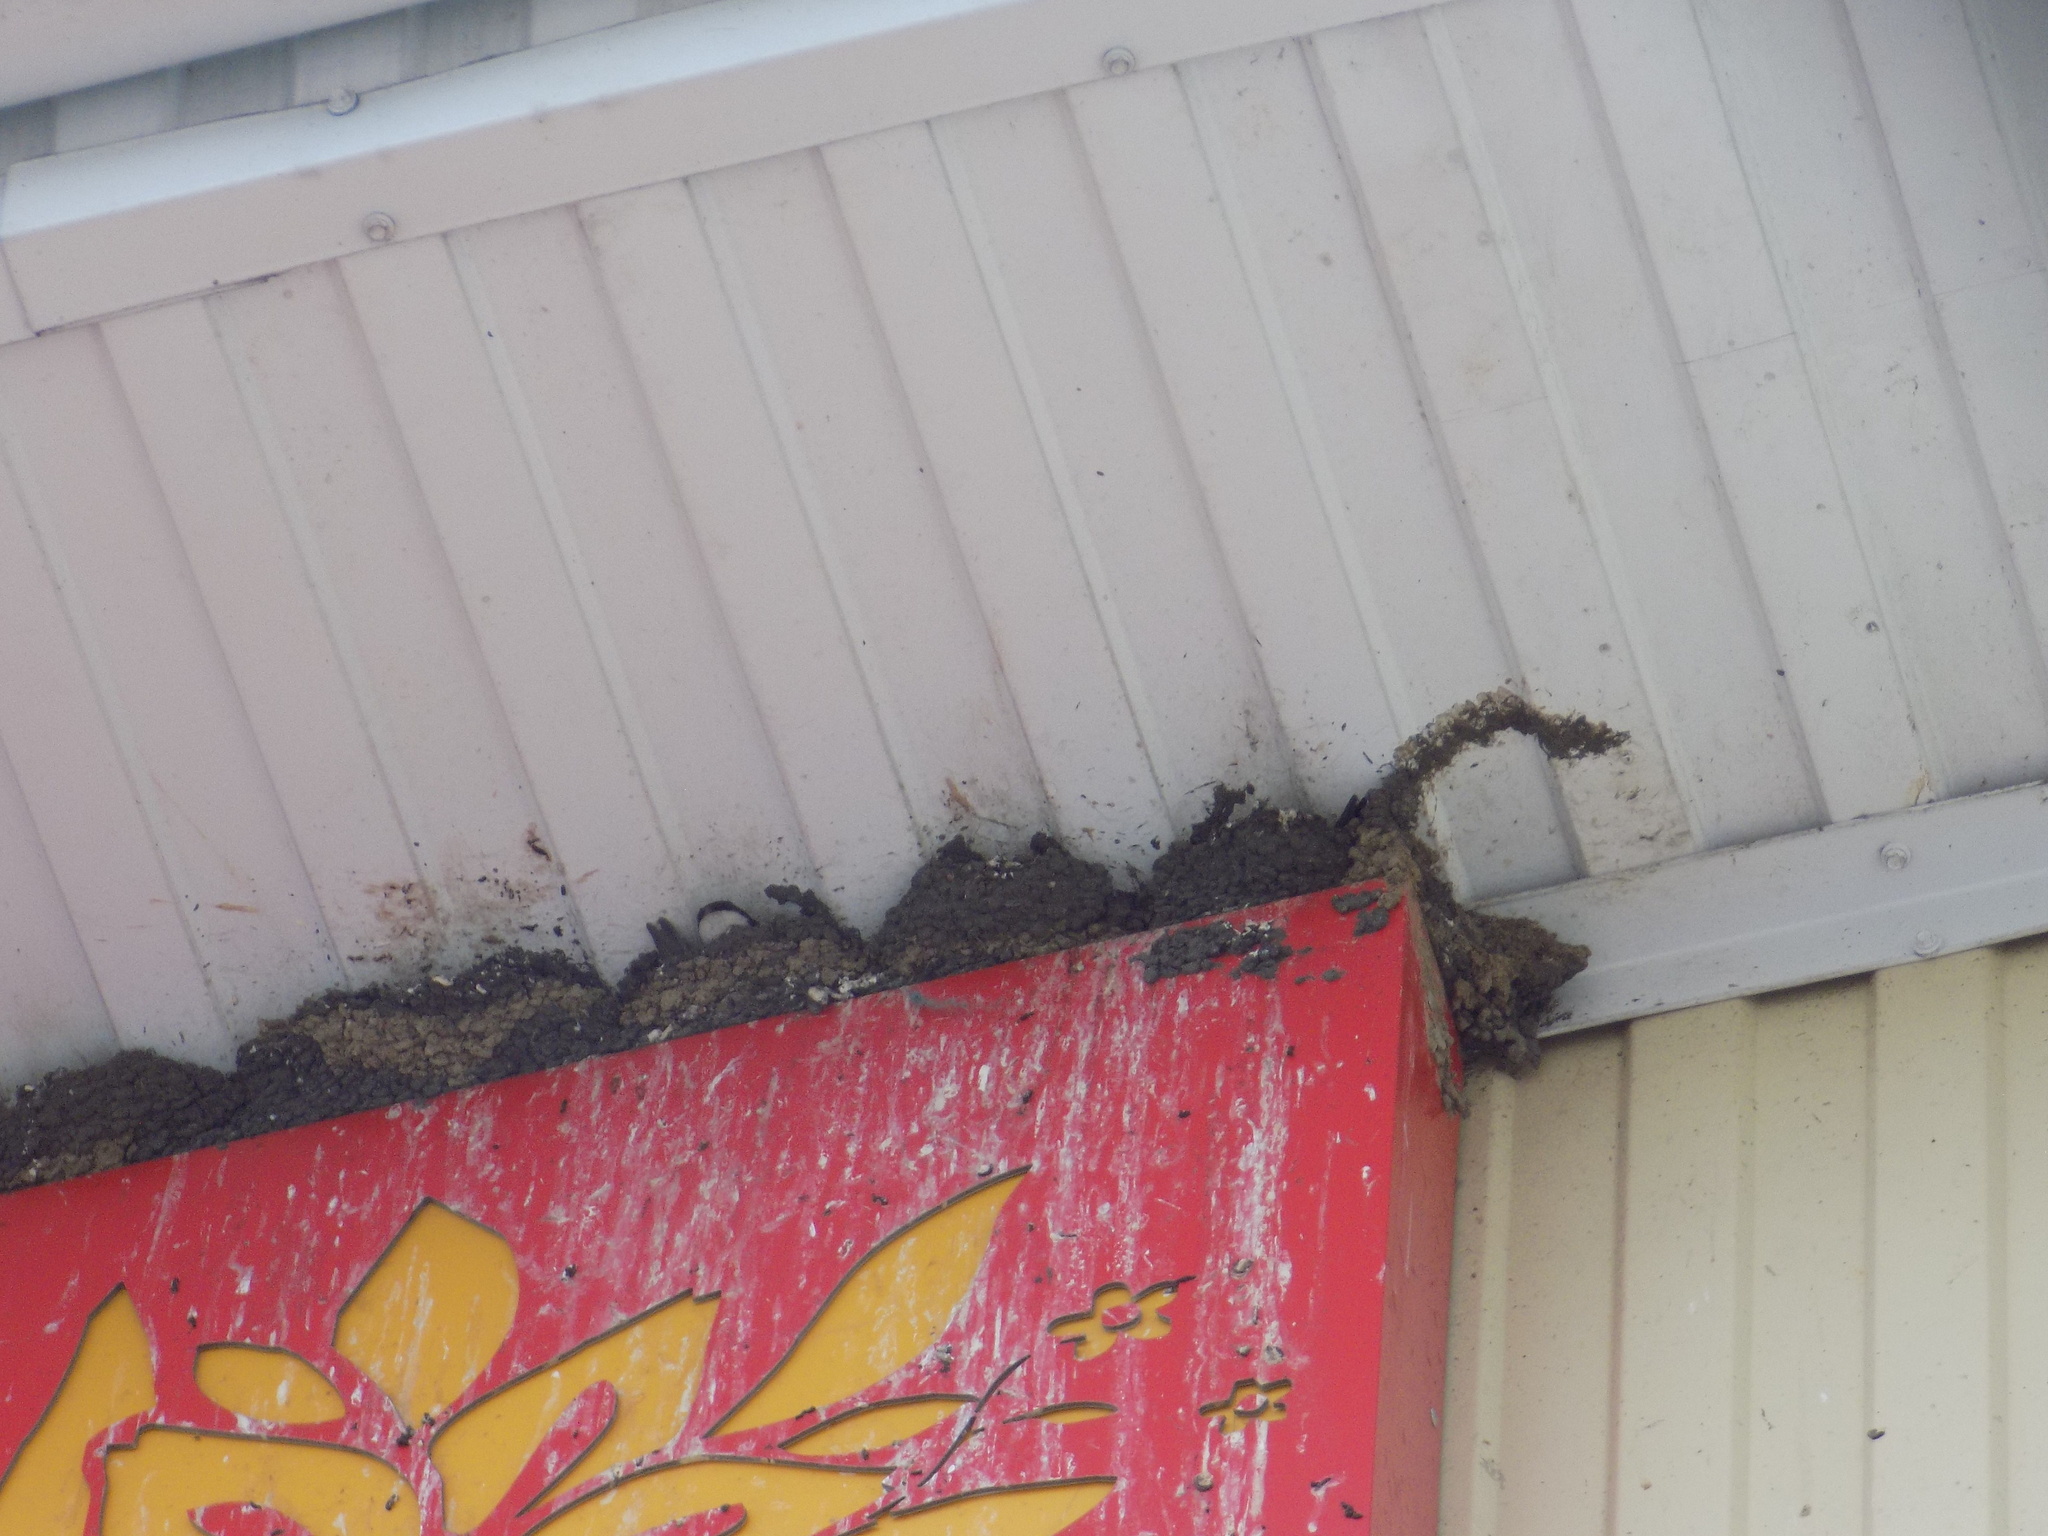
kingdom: Animalia
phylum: Chordata
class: Aves
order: Passeriformes
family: Hirundinidae
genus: Delichon
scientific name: Delichon urbicum
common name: Common house martin
